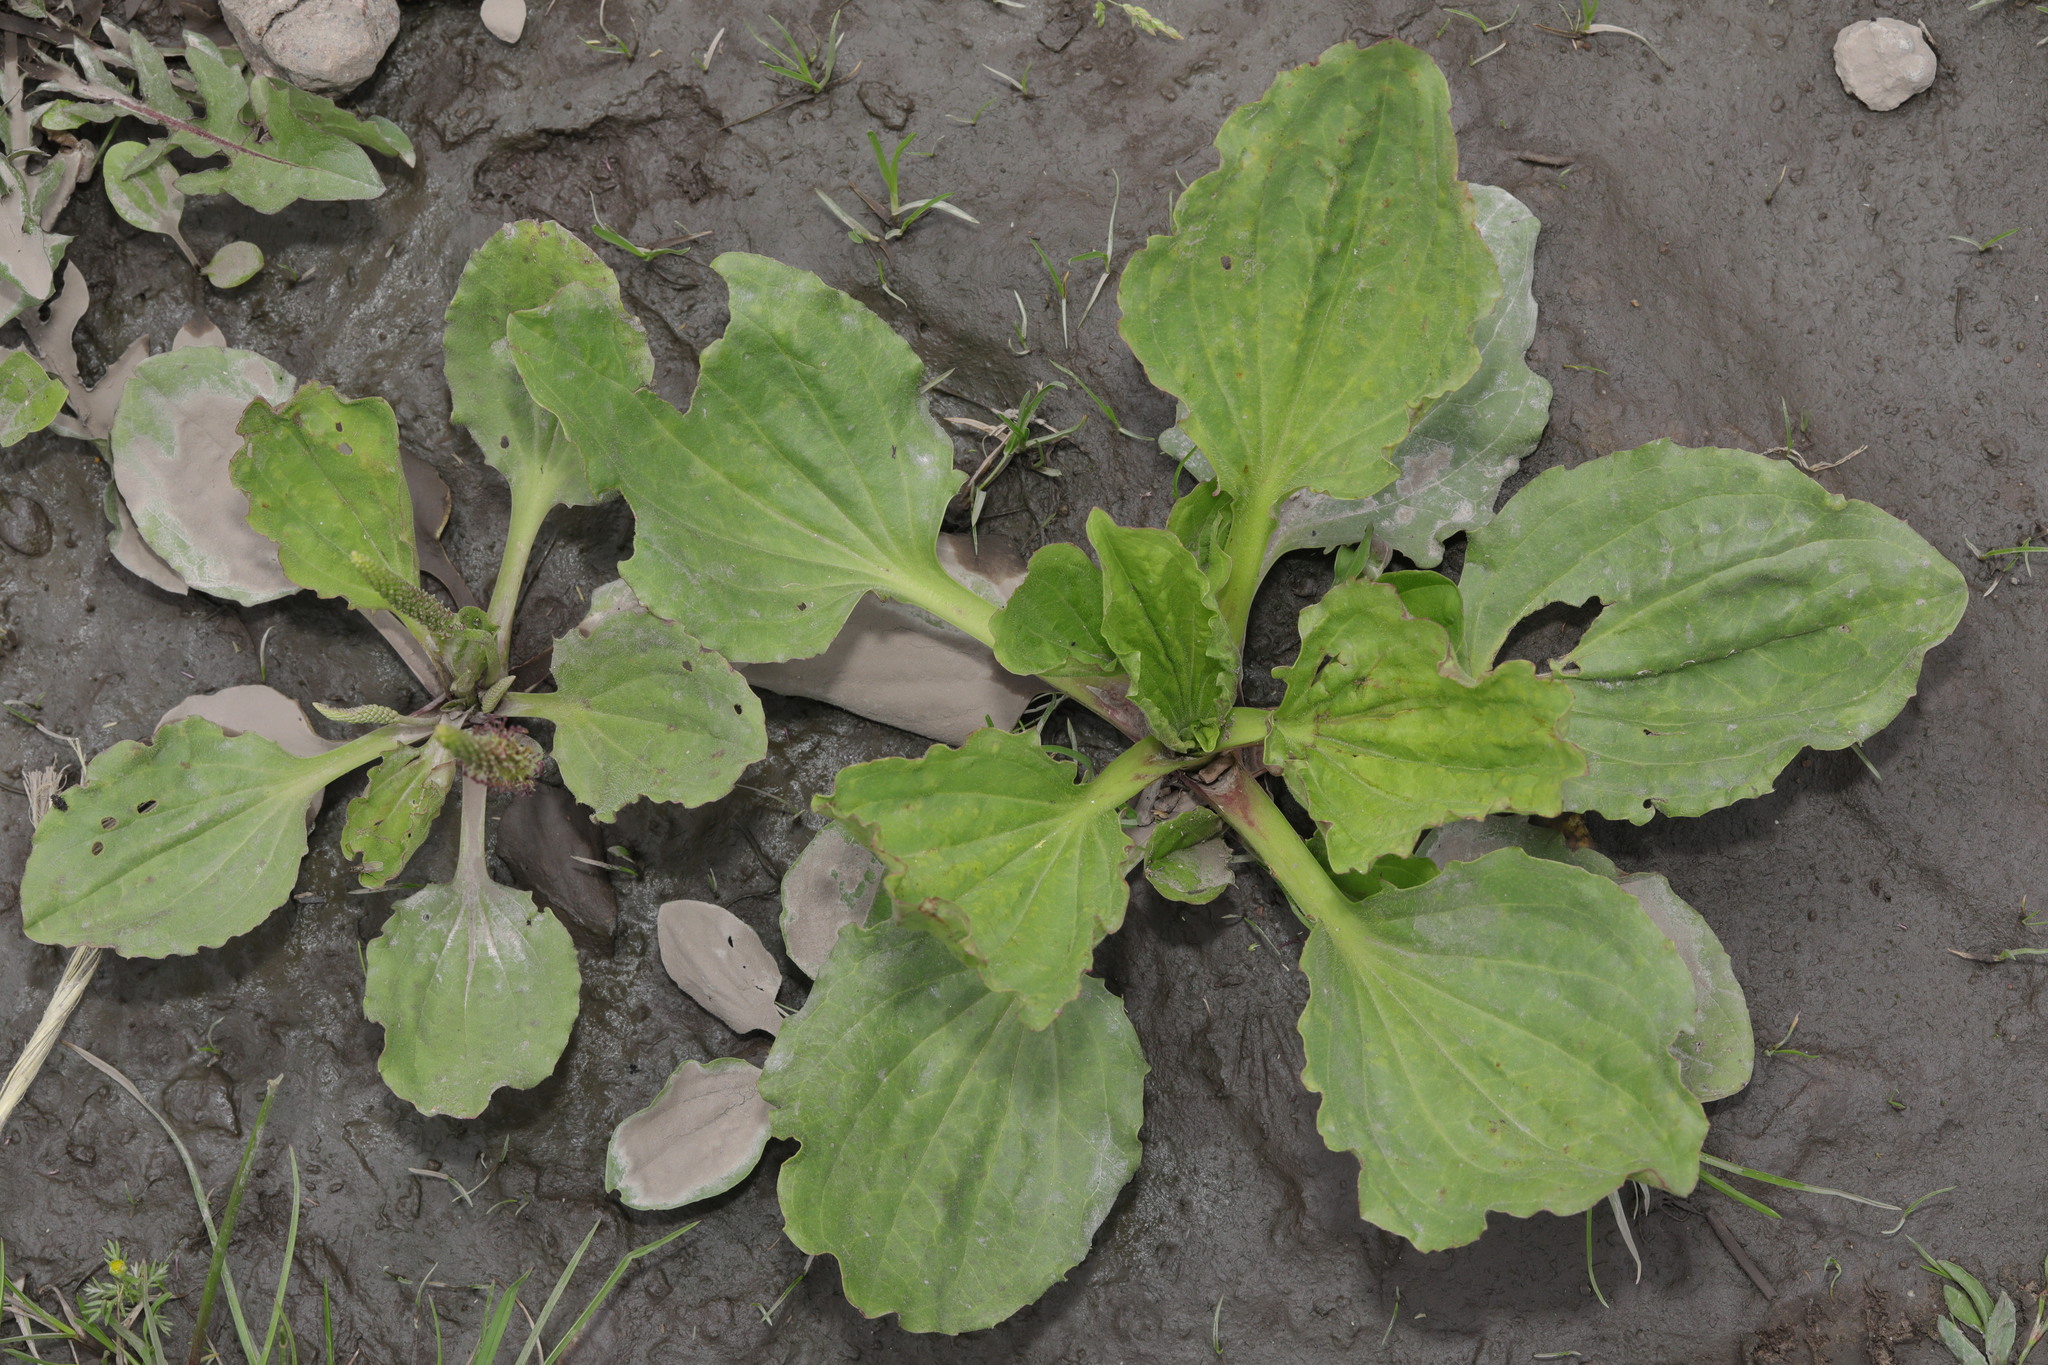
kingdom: Plantae
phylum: Tracheophyta
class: Magnoliopsida
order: Lamiales
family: Plantaginaceae
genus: Plantago
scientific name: Plantago major
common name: Common plantain
